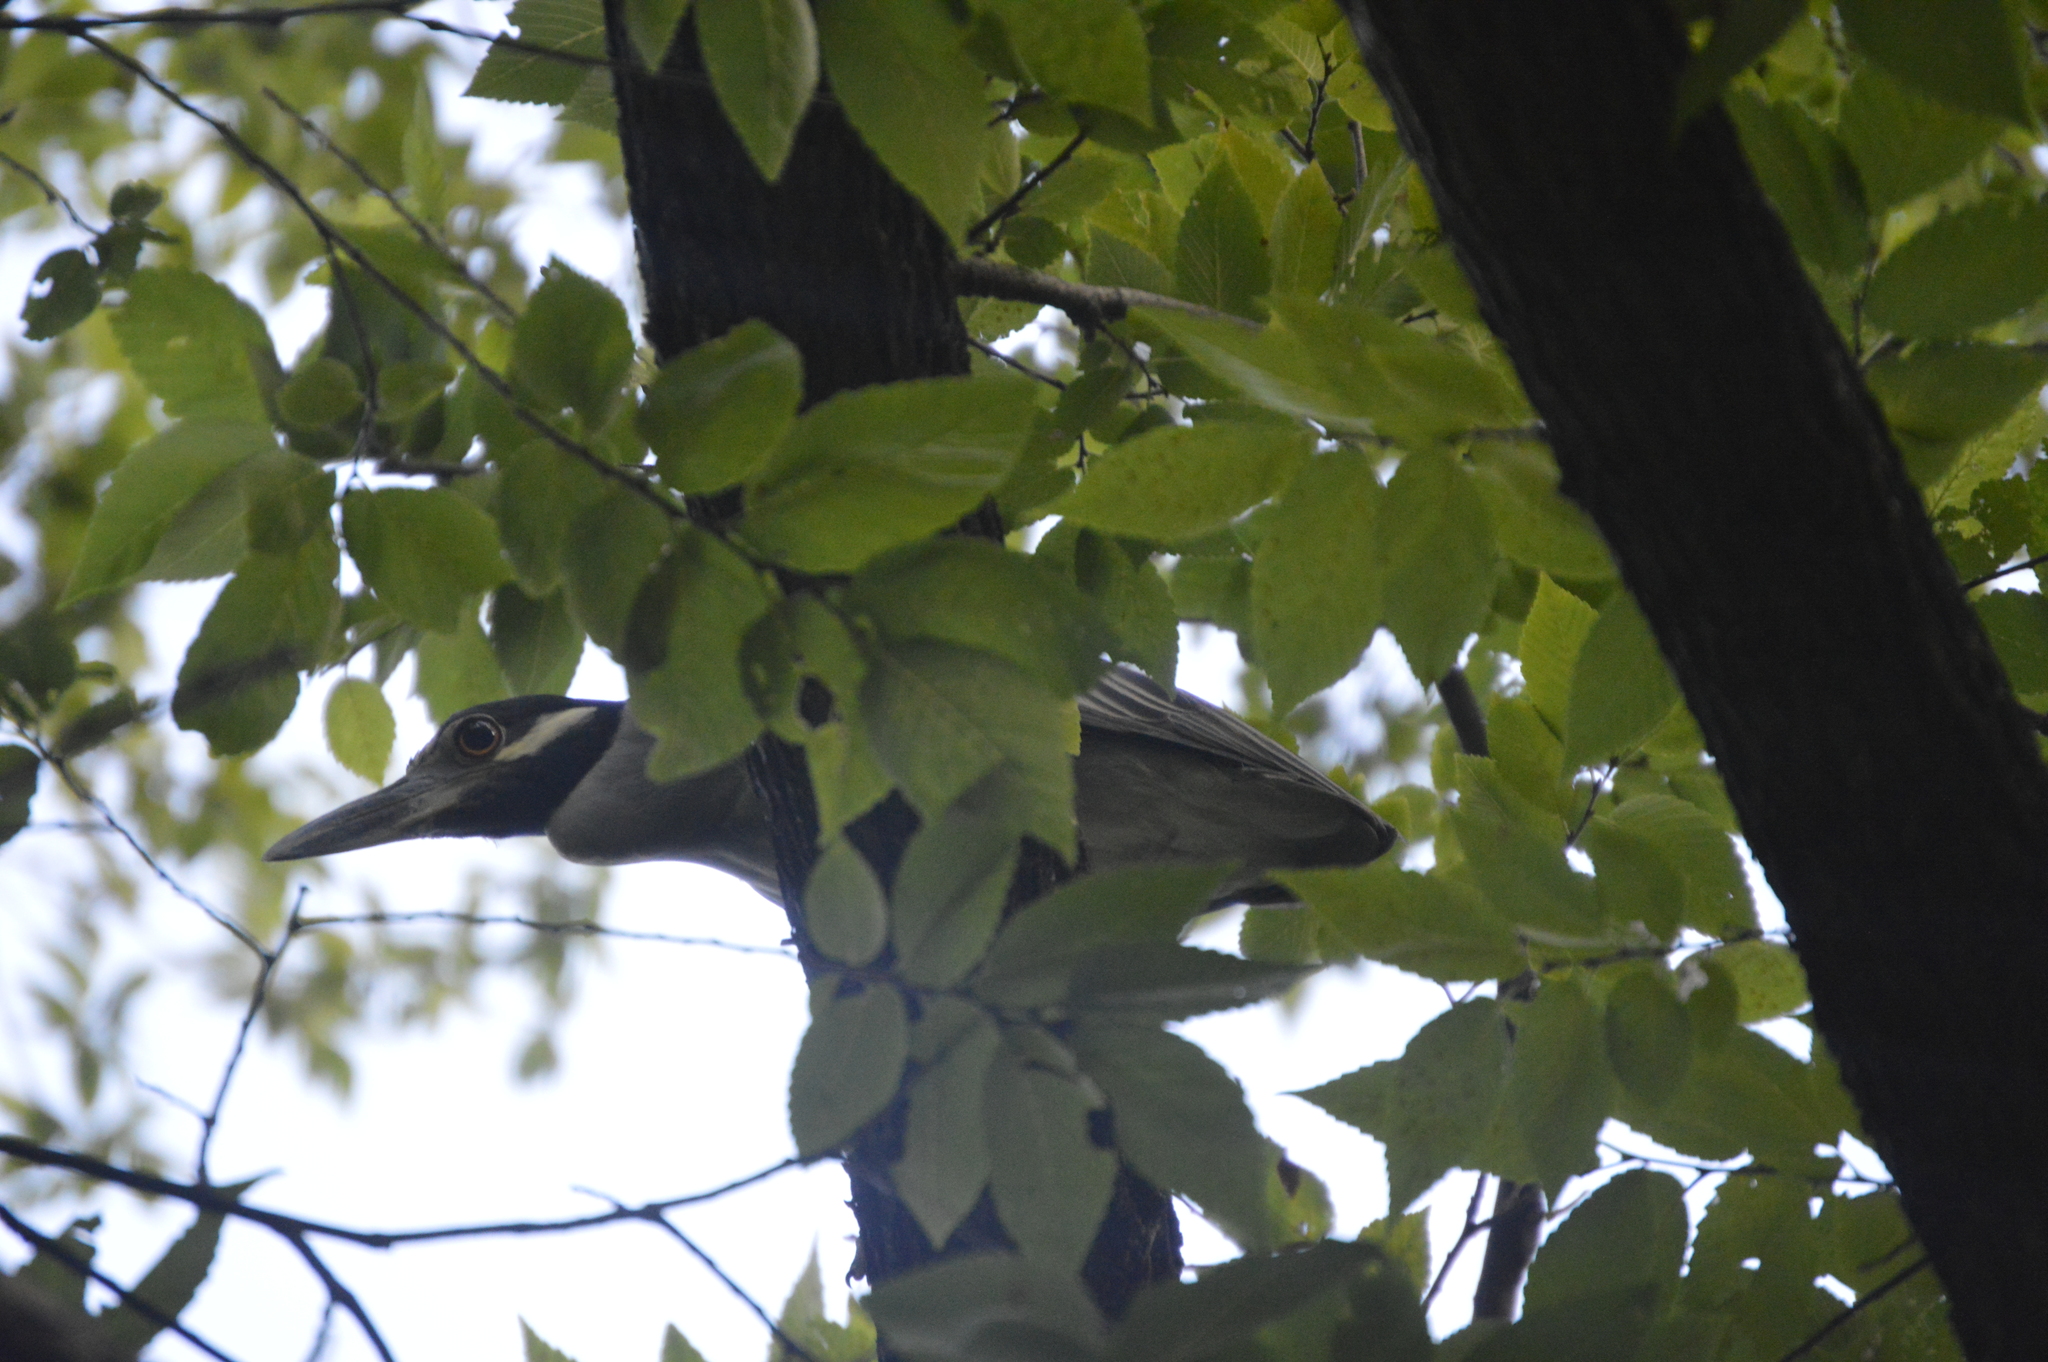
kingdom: Animalia
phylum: Chordata
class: Aves
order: Pelecaniformes
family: Ardeidae
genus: Nyctanassa
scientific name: Nyctanassa violacea
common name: Yellow-crowned night heron
